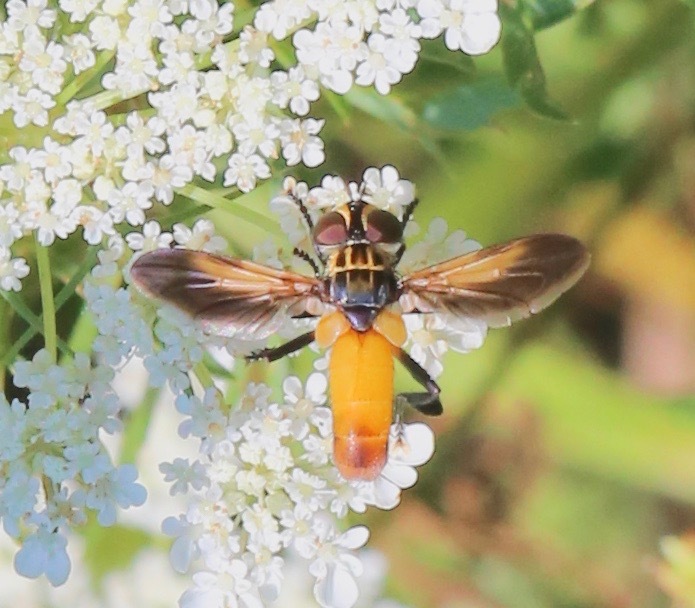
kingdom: Animalia
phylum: Arthropoda
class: Insecta
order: Diptera
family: Tachinidae
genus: Trichopoda
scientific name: Trichopoda pennipes
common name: Tachinid fly
